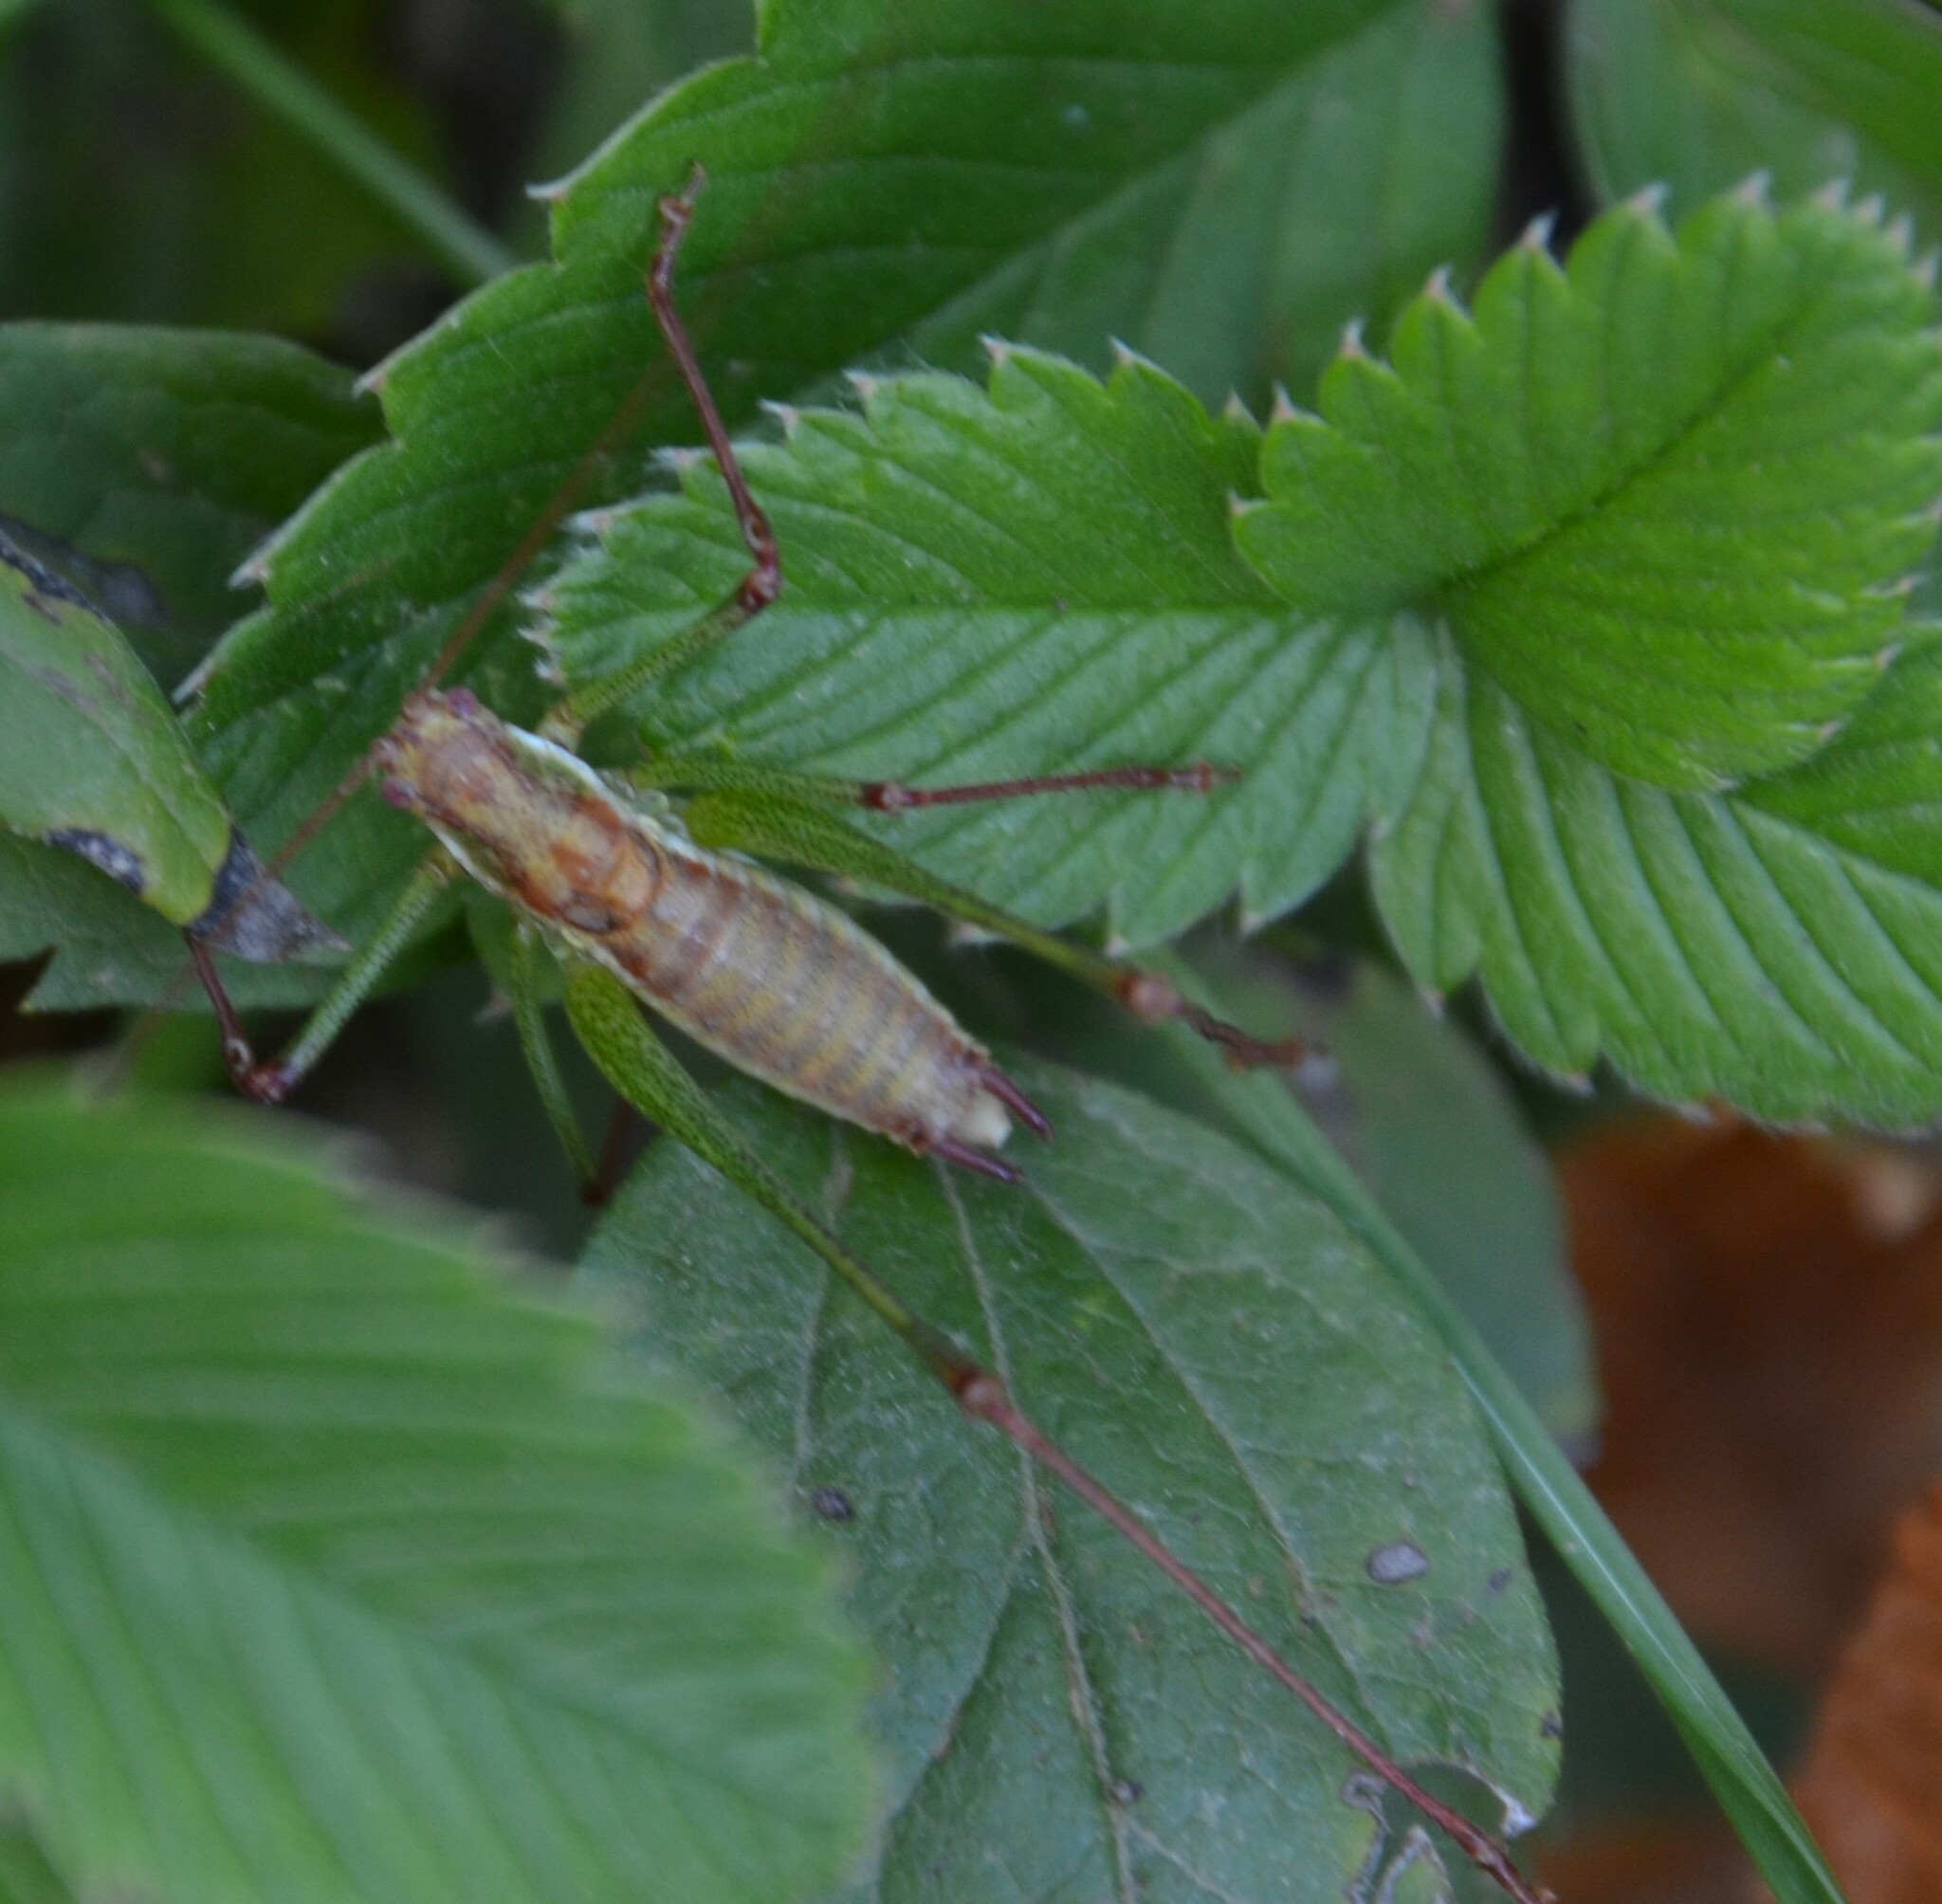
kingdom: Animalia
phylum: Arthropoda
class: Insecta
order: Orthoptera
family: Tettigoniidae
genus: Leptophyes
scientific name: Leptophyes albovittata
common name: Striped bush-cricket
